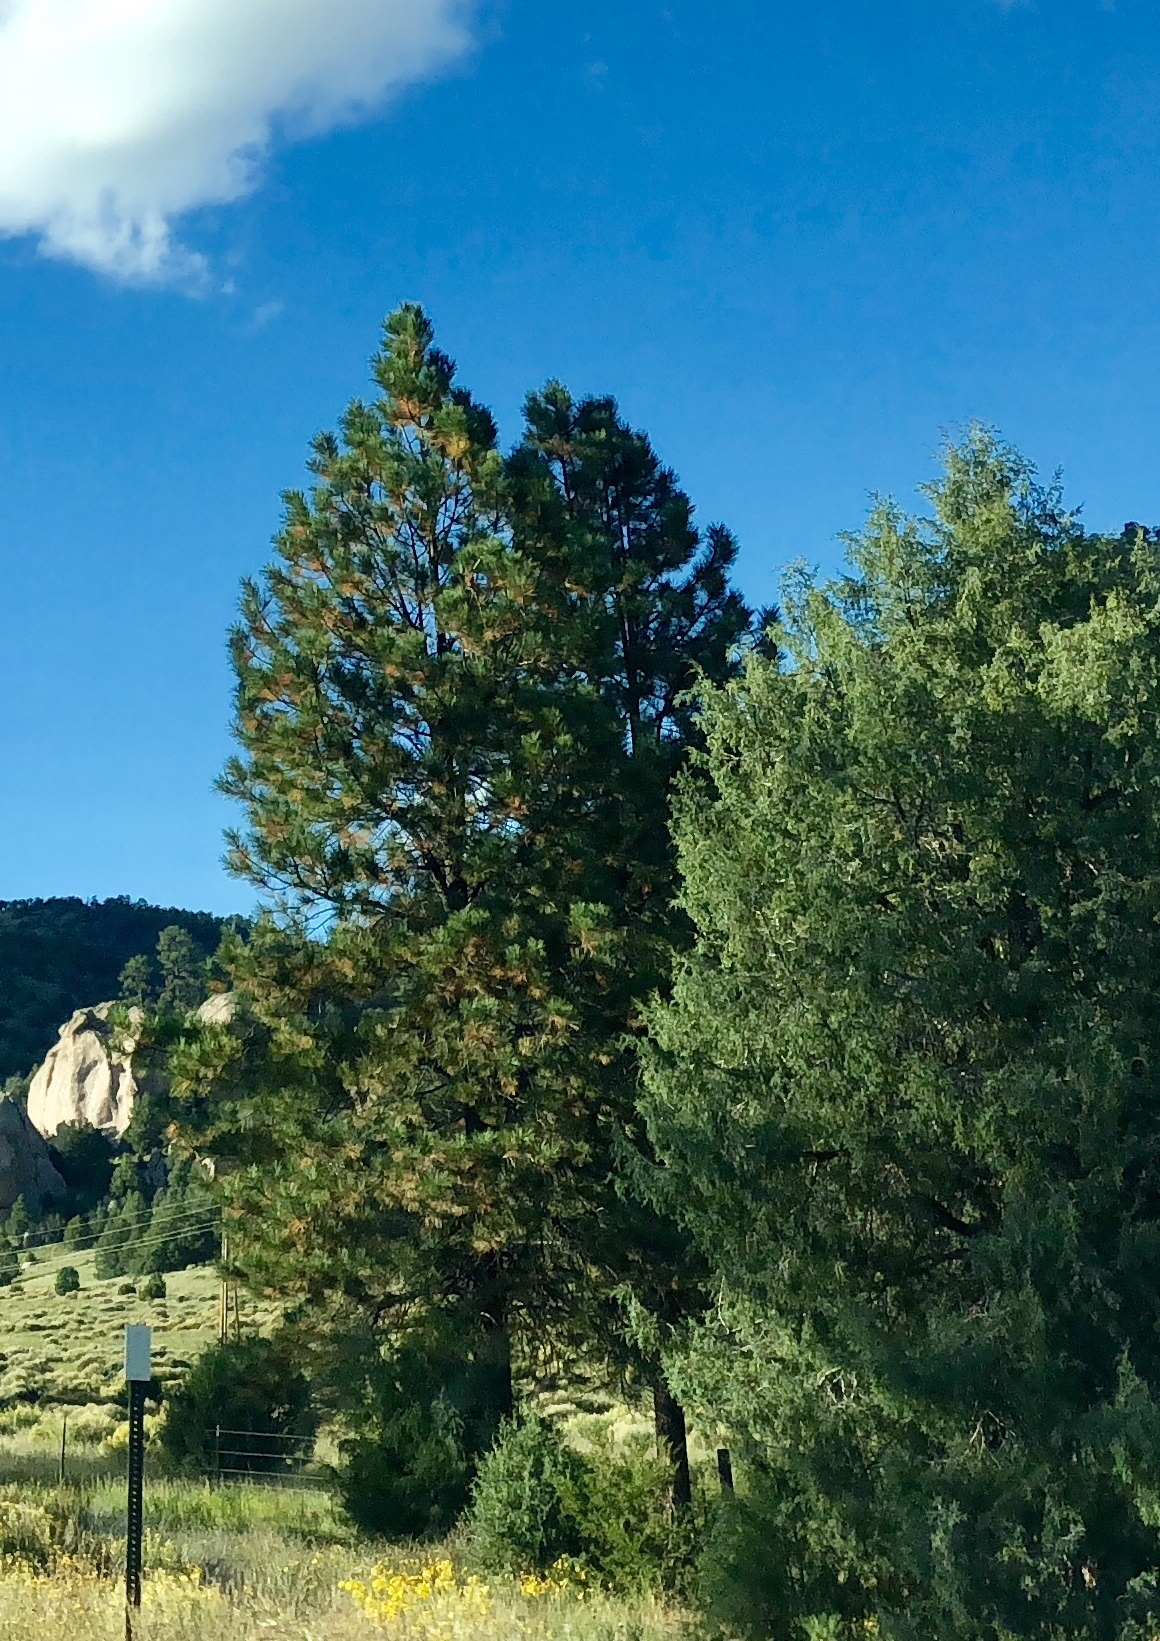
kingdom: Plantae
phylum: Tracheophyta
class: Pinopsida
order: Pinales
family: Pinaceae
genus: Pinus
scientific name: Pinus ponderosa
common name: Western yellow-pine
